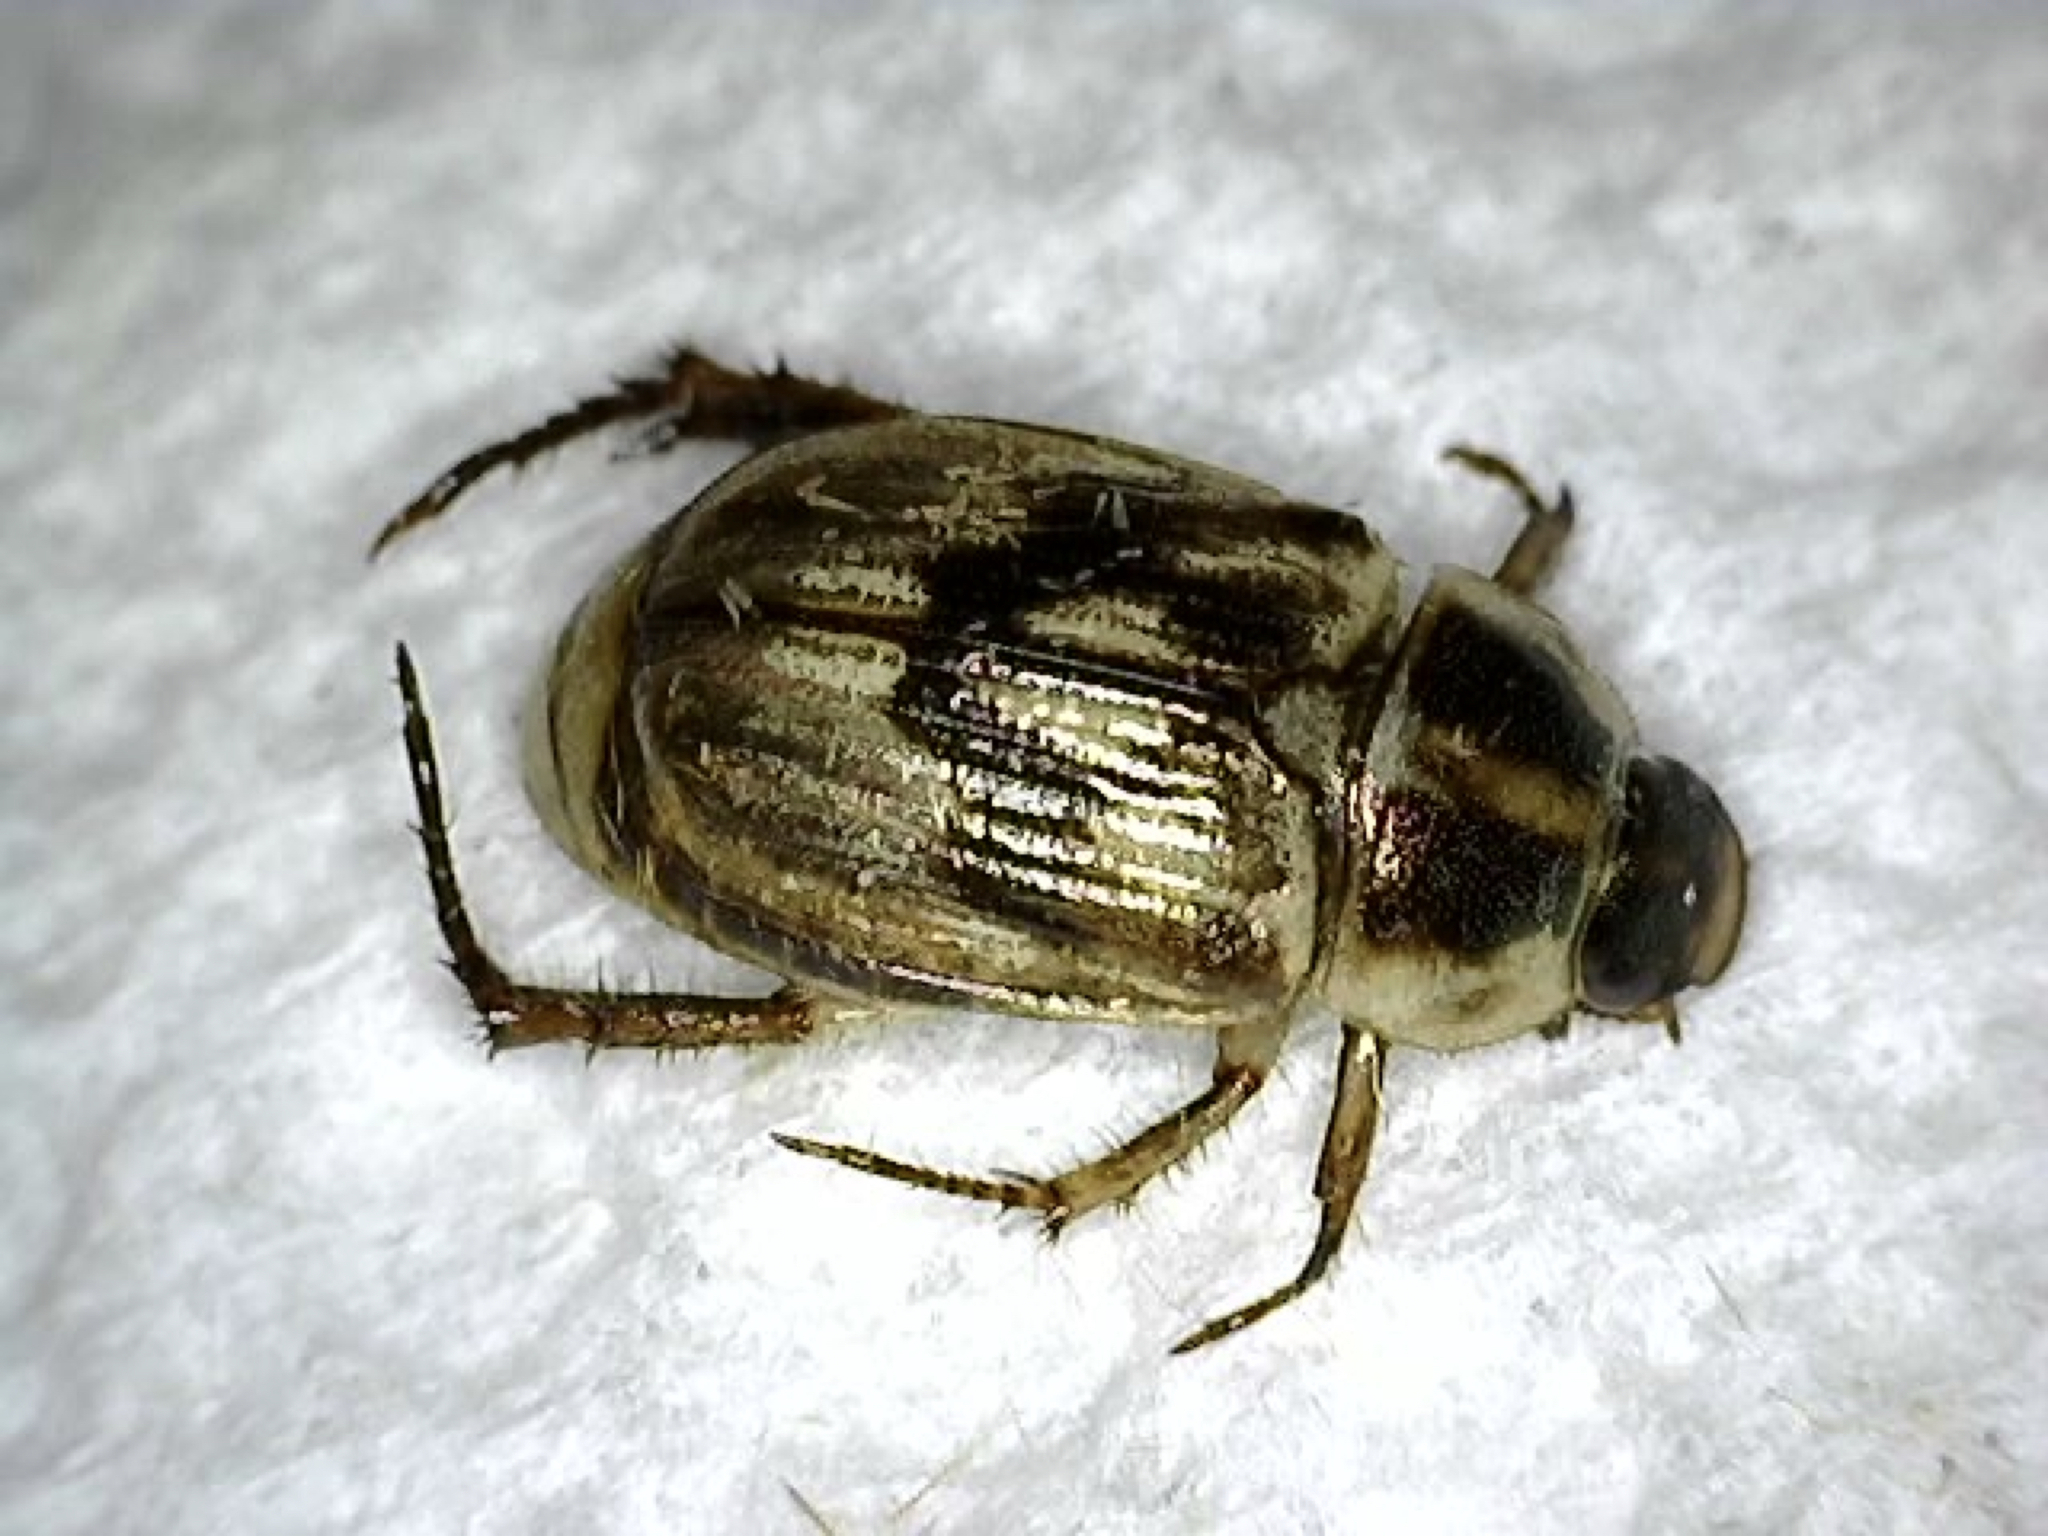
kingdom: Animalia
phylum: Arthropoda
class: Insecta
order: Coleoptera
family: Scarabaeidae
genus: Exomala
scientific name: Exomala orientalis
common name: Oriental beetle
